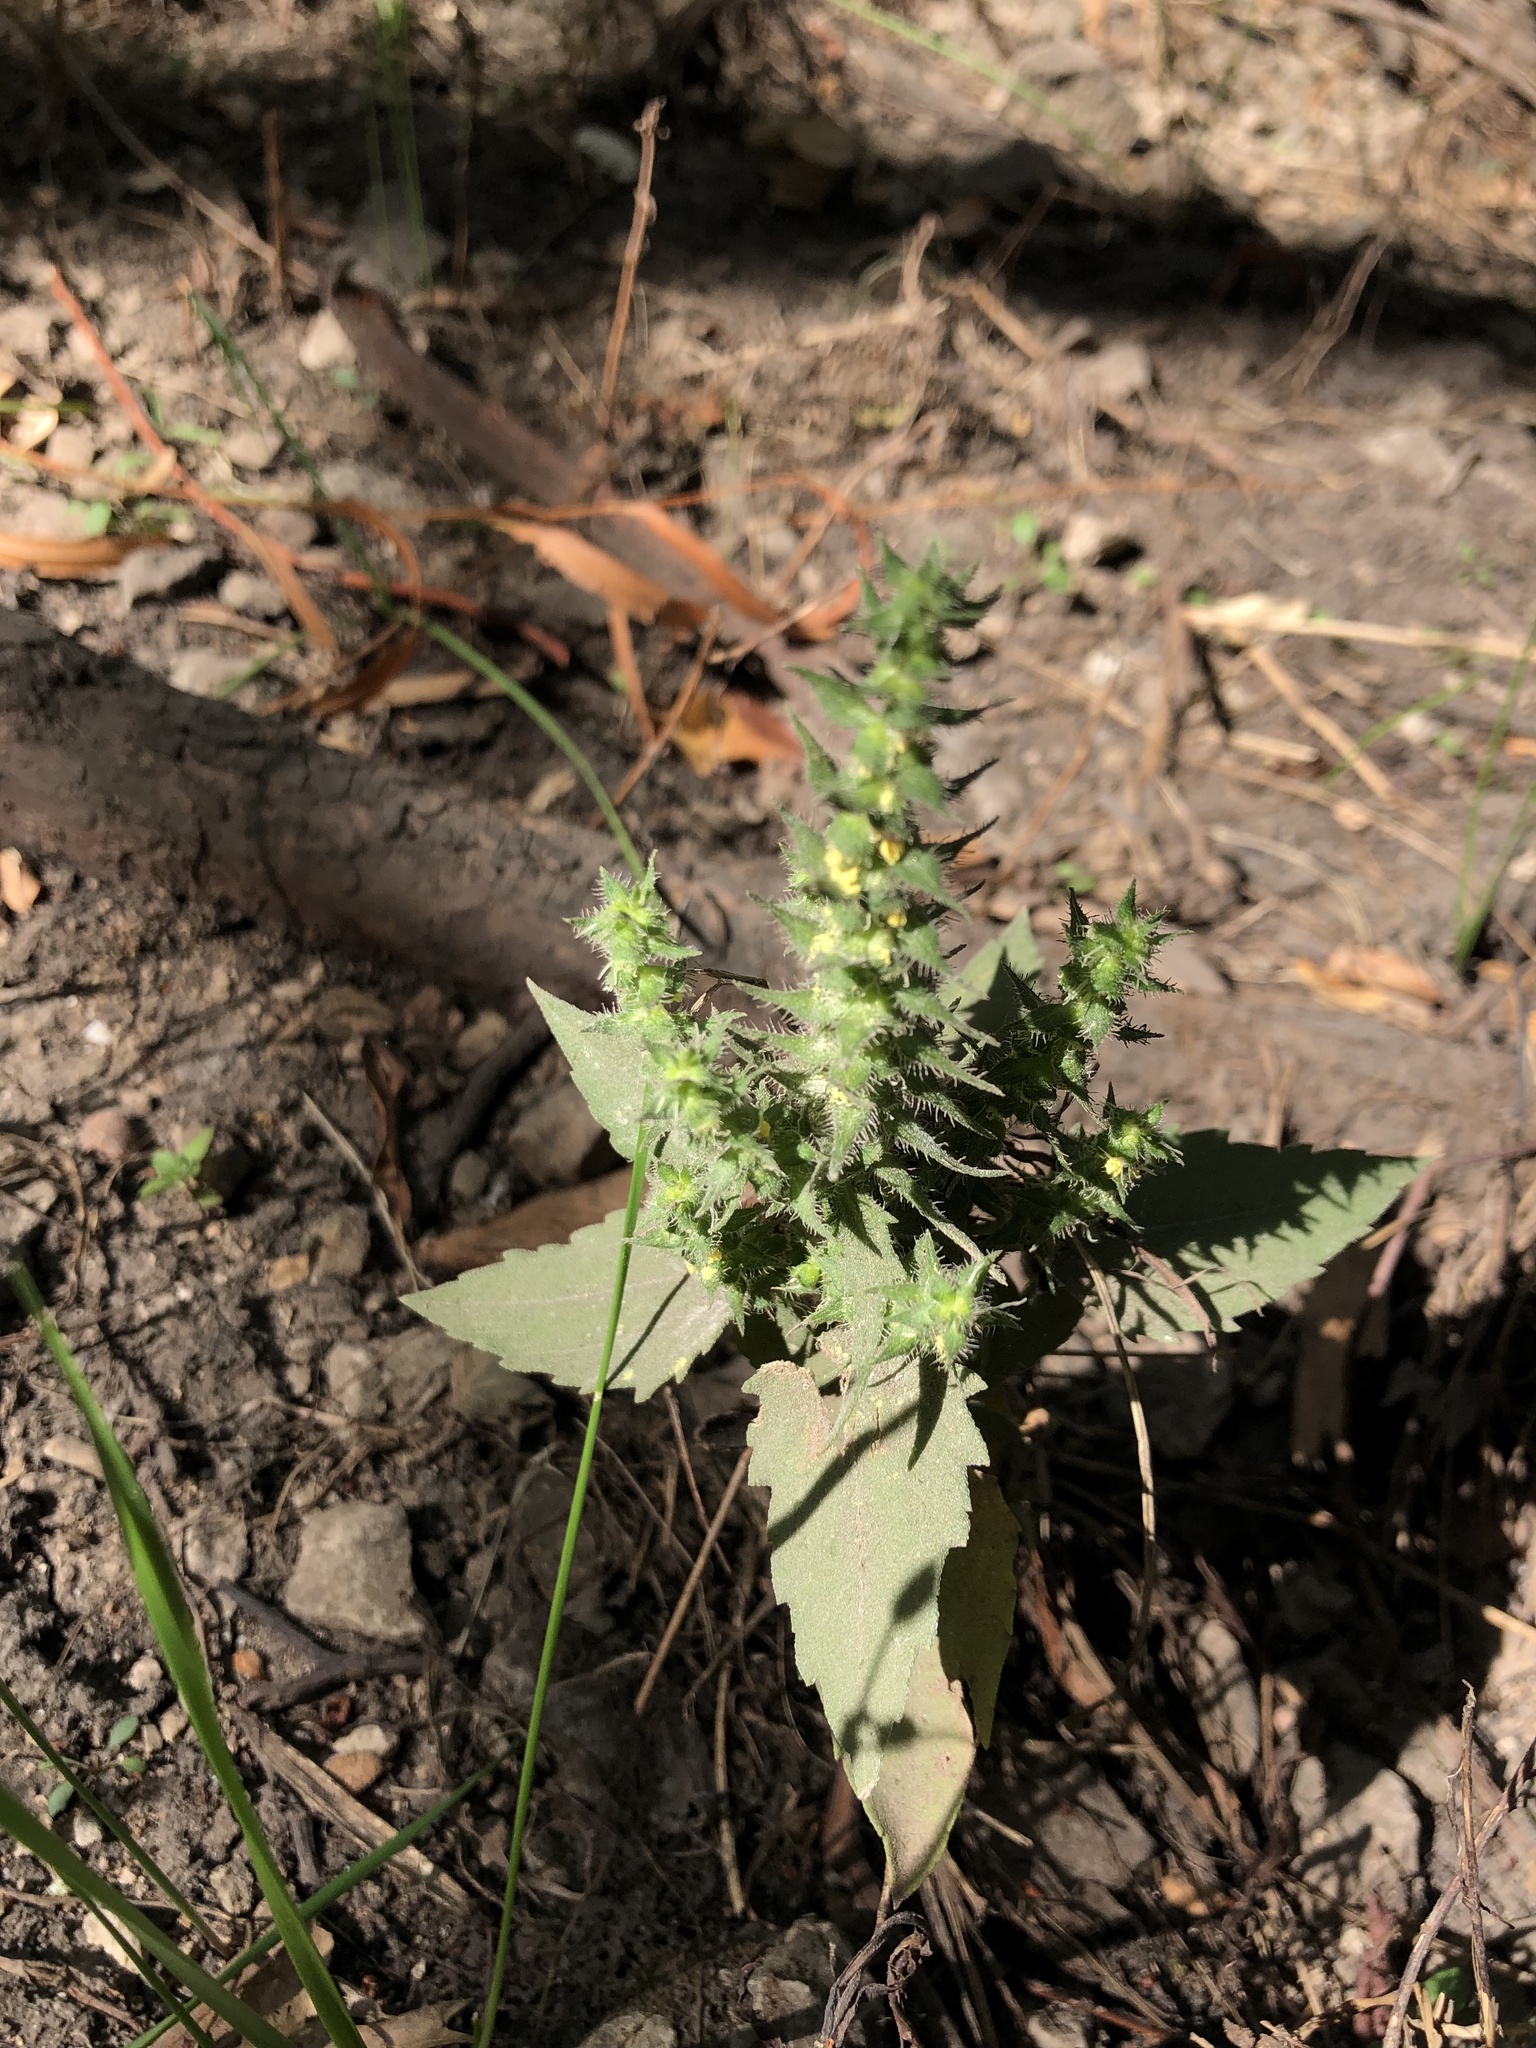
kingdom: Plantae
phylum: Tracheophyta
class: Magnoliopsida
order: Asterales
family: Asteraceae
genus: Iva
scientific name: Iva annua
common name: Marsh-elder
